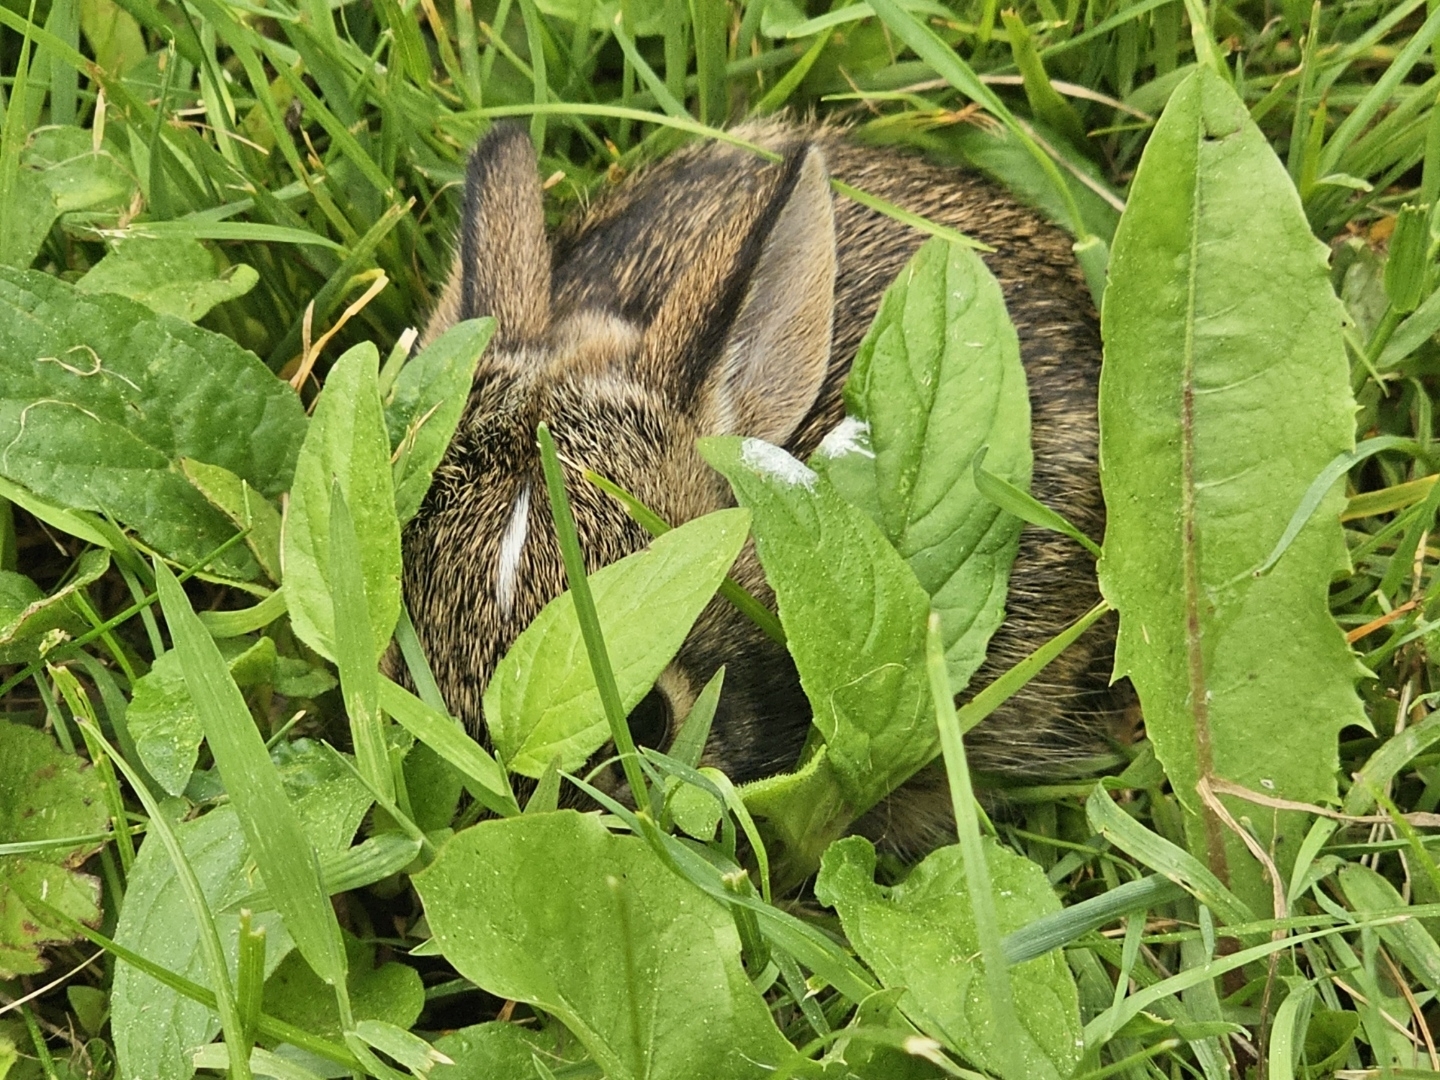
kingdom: Animalia
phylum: Chordata
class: Mammalia
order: Lagomorpha
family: Leporidae
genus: Sylvilagus
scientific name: Sylvilagus floridanus
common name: Eastern cottontail
